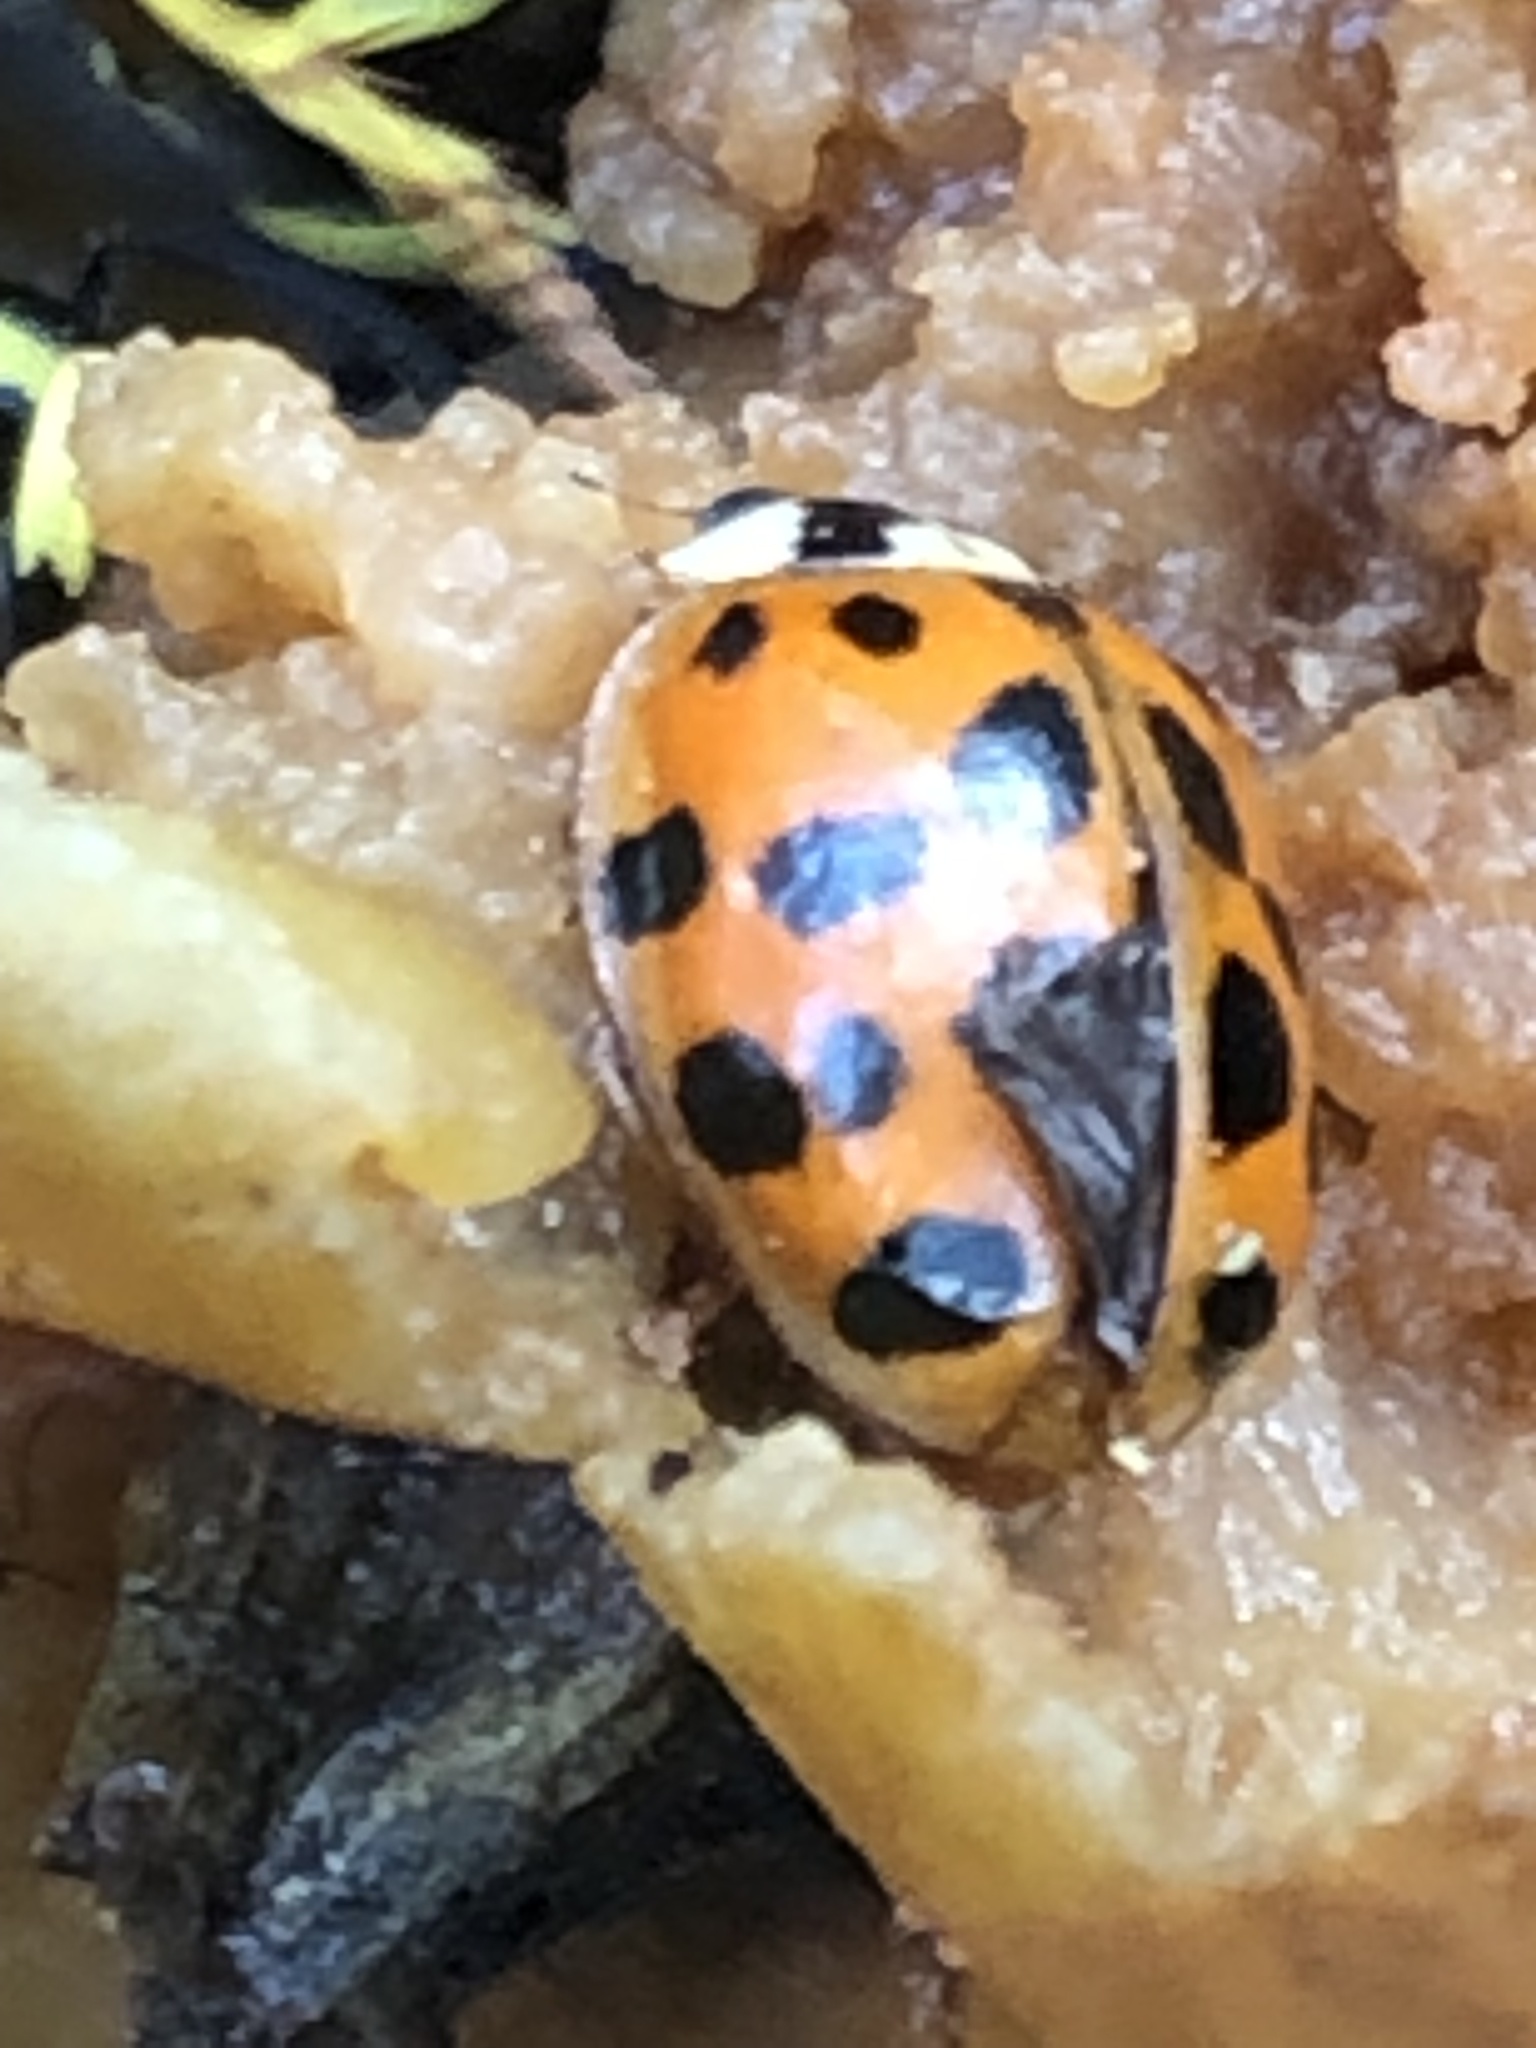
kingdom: Animalia
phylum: Arthropoda
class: Insecta
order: Coleoptera
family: Coccinellidae
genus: Harmonia
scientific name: Harmonia axyridis
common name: Harlequin ladybird
